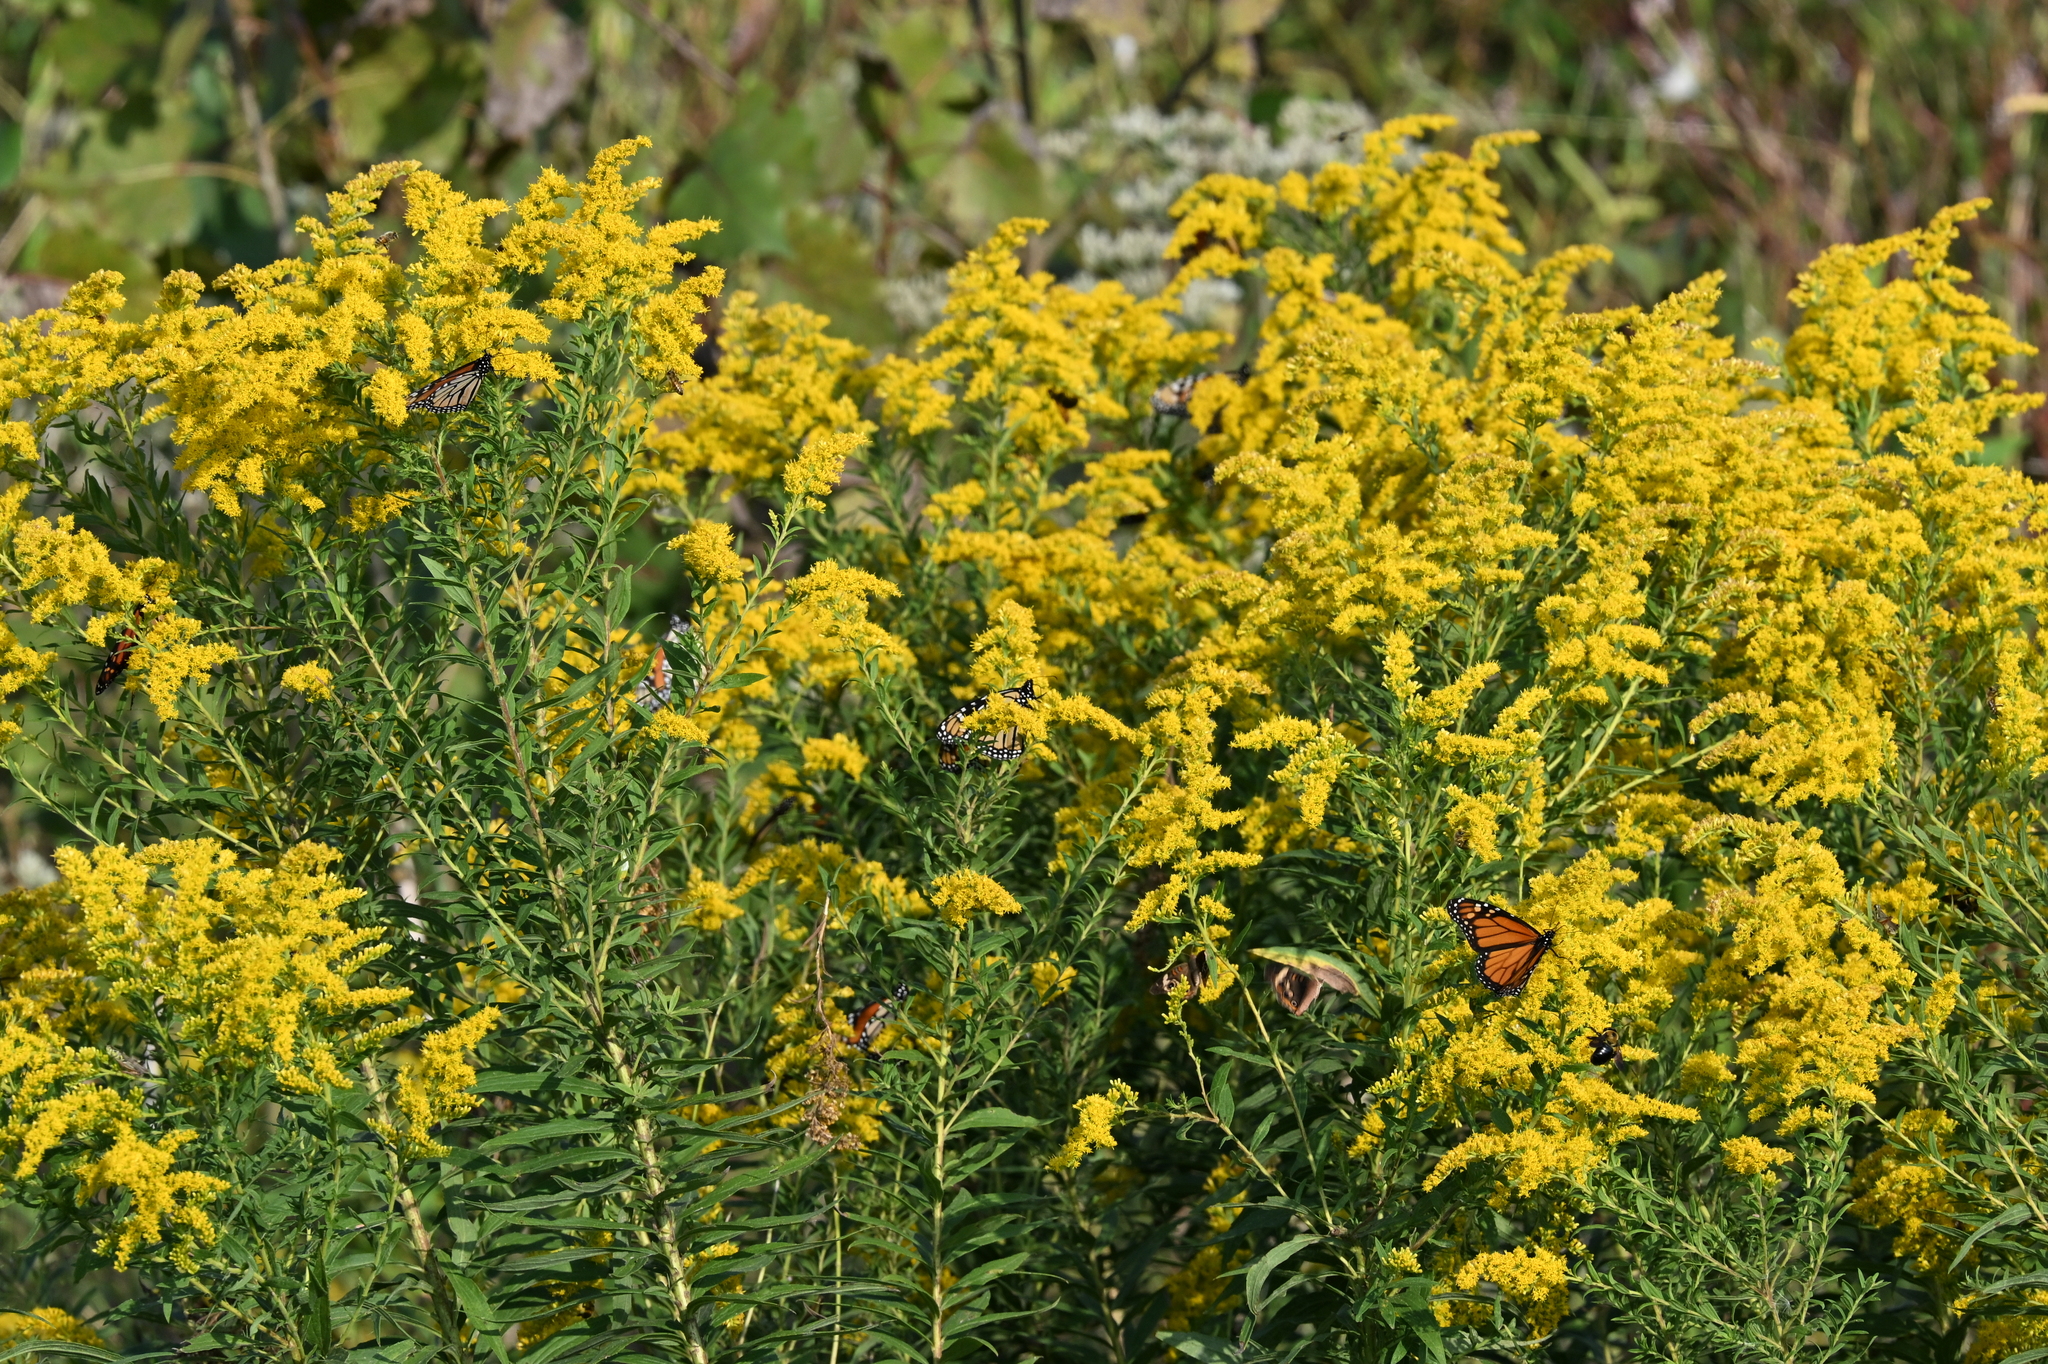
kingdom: Animalia
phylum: Arthropoda
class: Insecta
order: Lepidoptera
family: Nymphalidae
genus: Danaus
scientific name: Danaus plexippus
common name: Monarch
